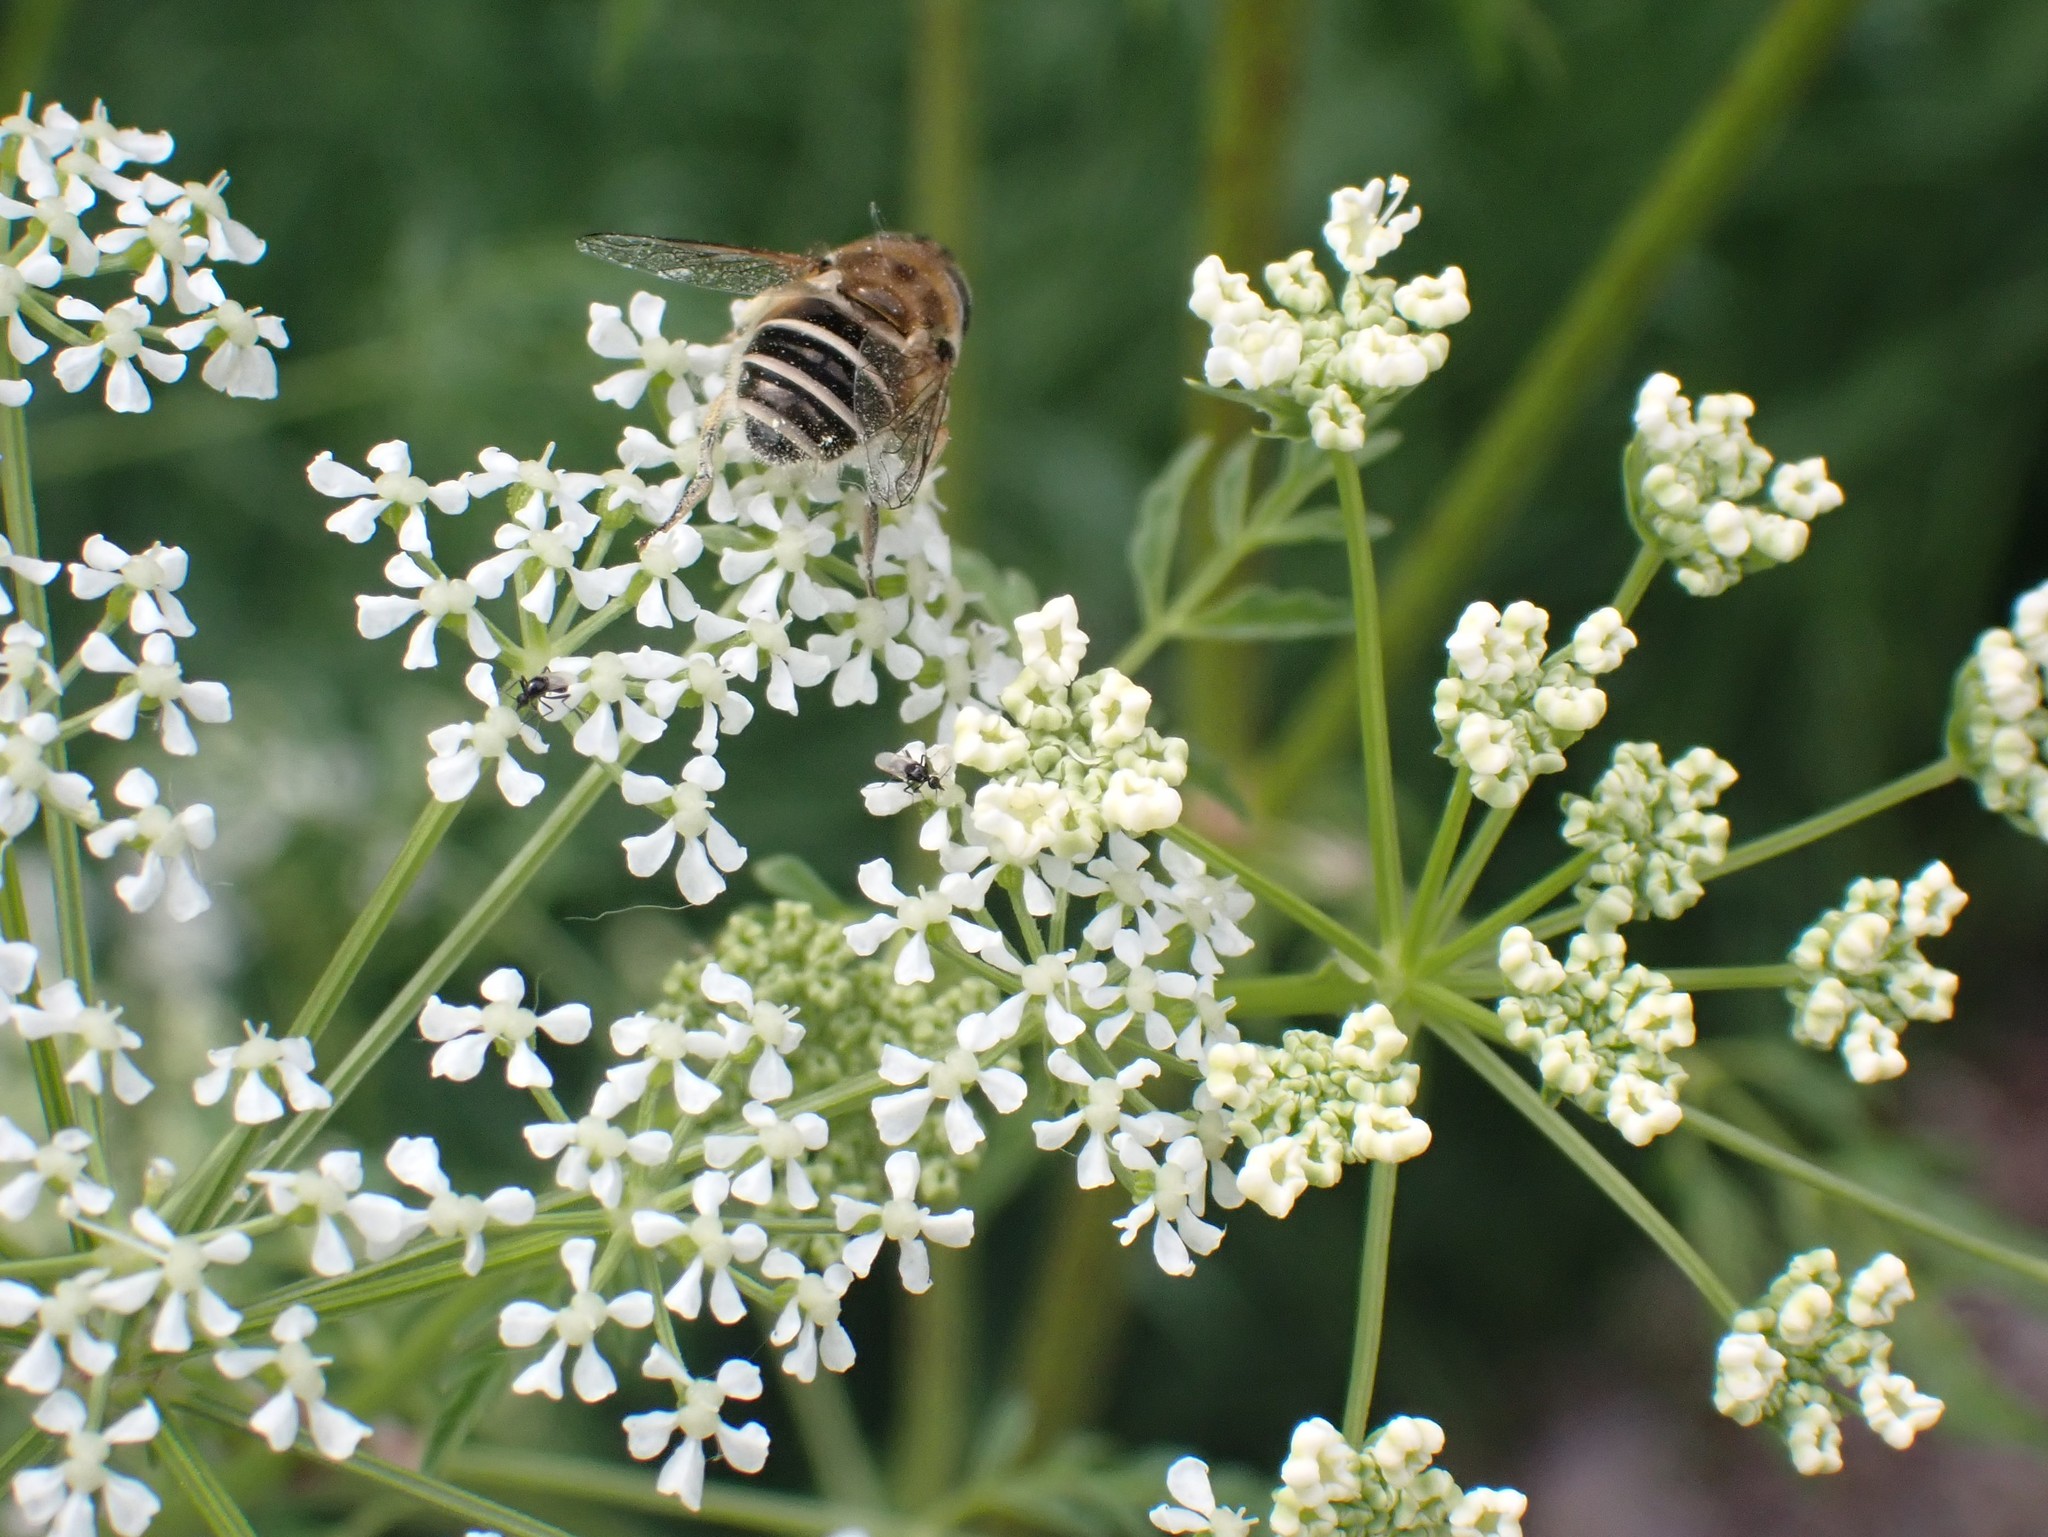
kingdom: Plantae
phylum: Tracheophyta
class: Magnoliopsida
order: Apiales
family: Apiaceae
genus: Conium
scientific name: Conium maculatum
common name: Hemlock
